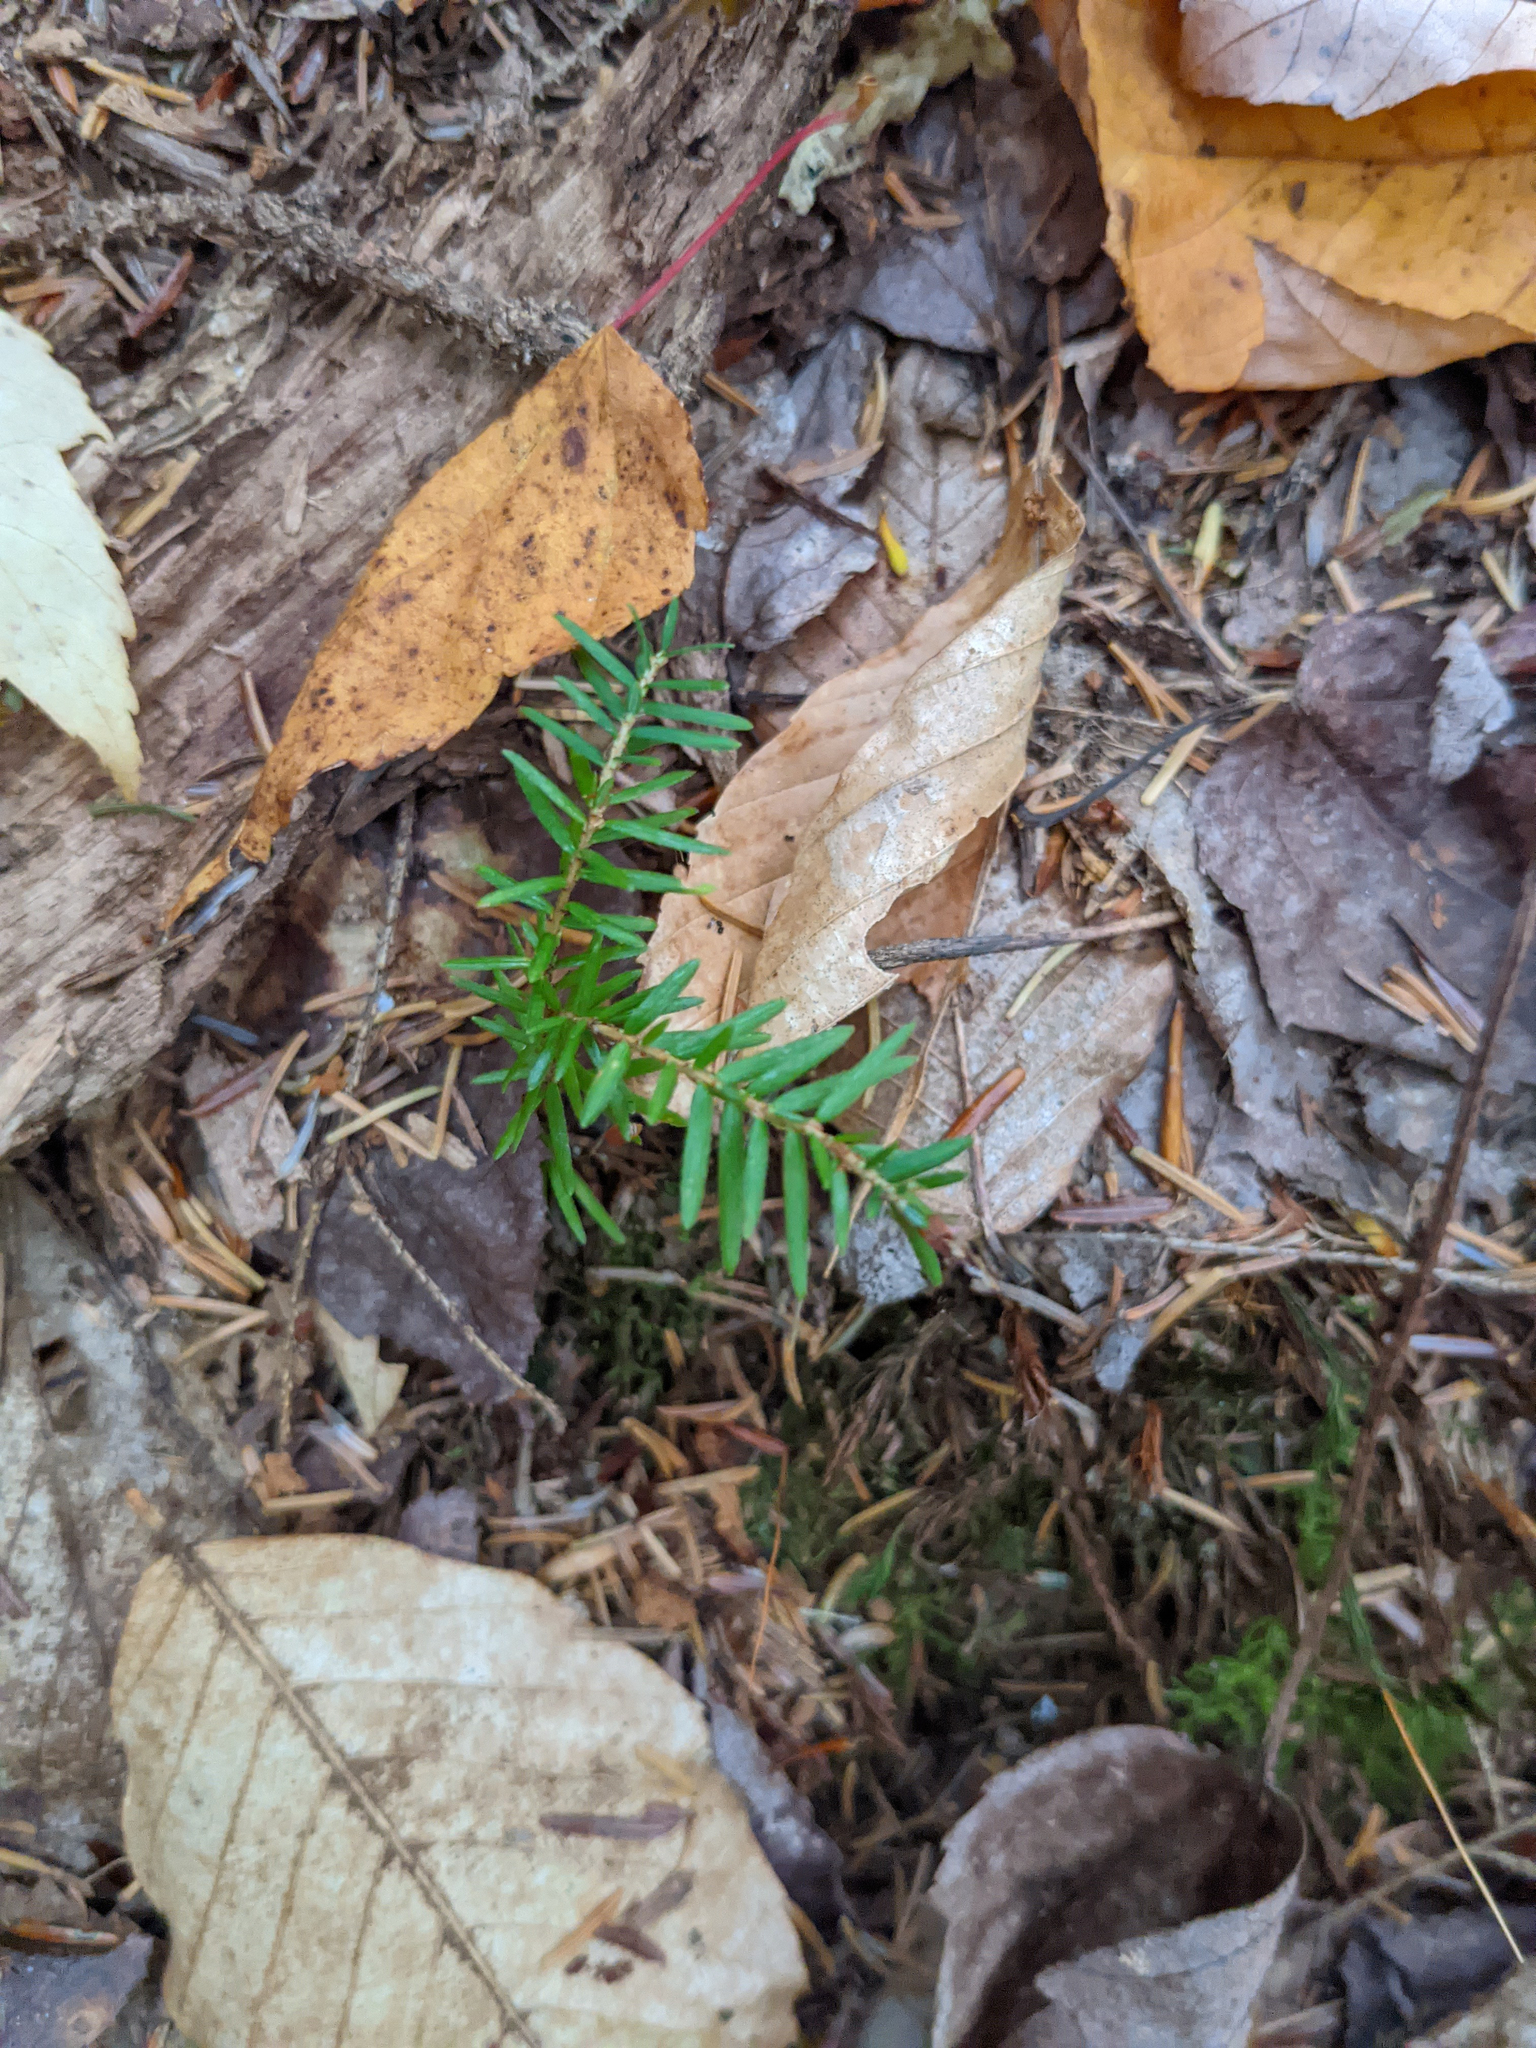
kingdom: Plantae
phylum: Tracheophyta
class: Pinopsida
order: Pinales
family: Pinaceae
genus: Tsuga
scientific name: Tsuga canadensis
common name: Eastern hemlock
